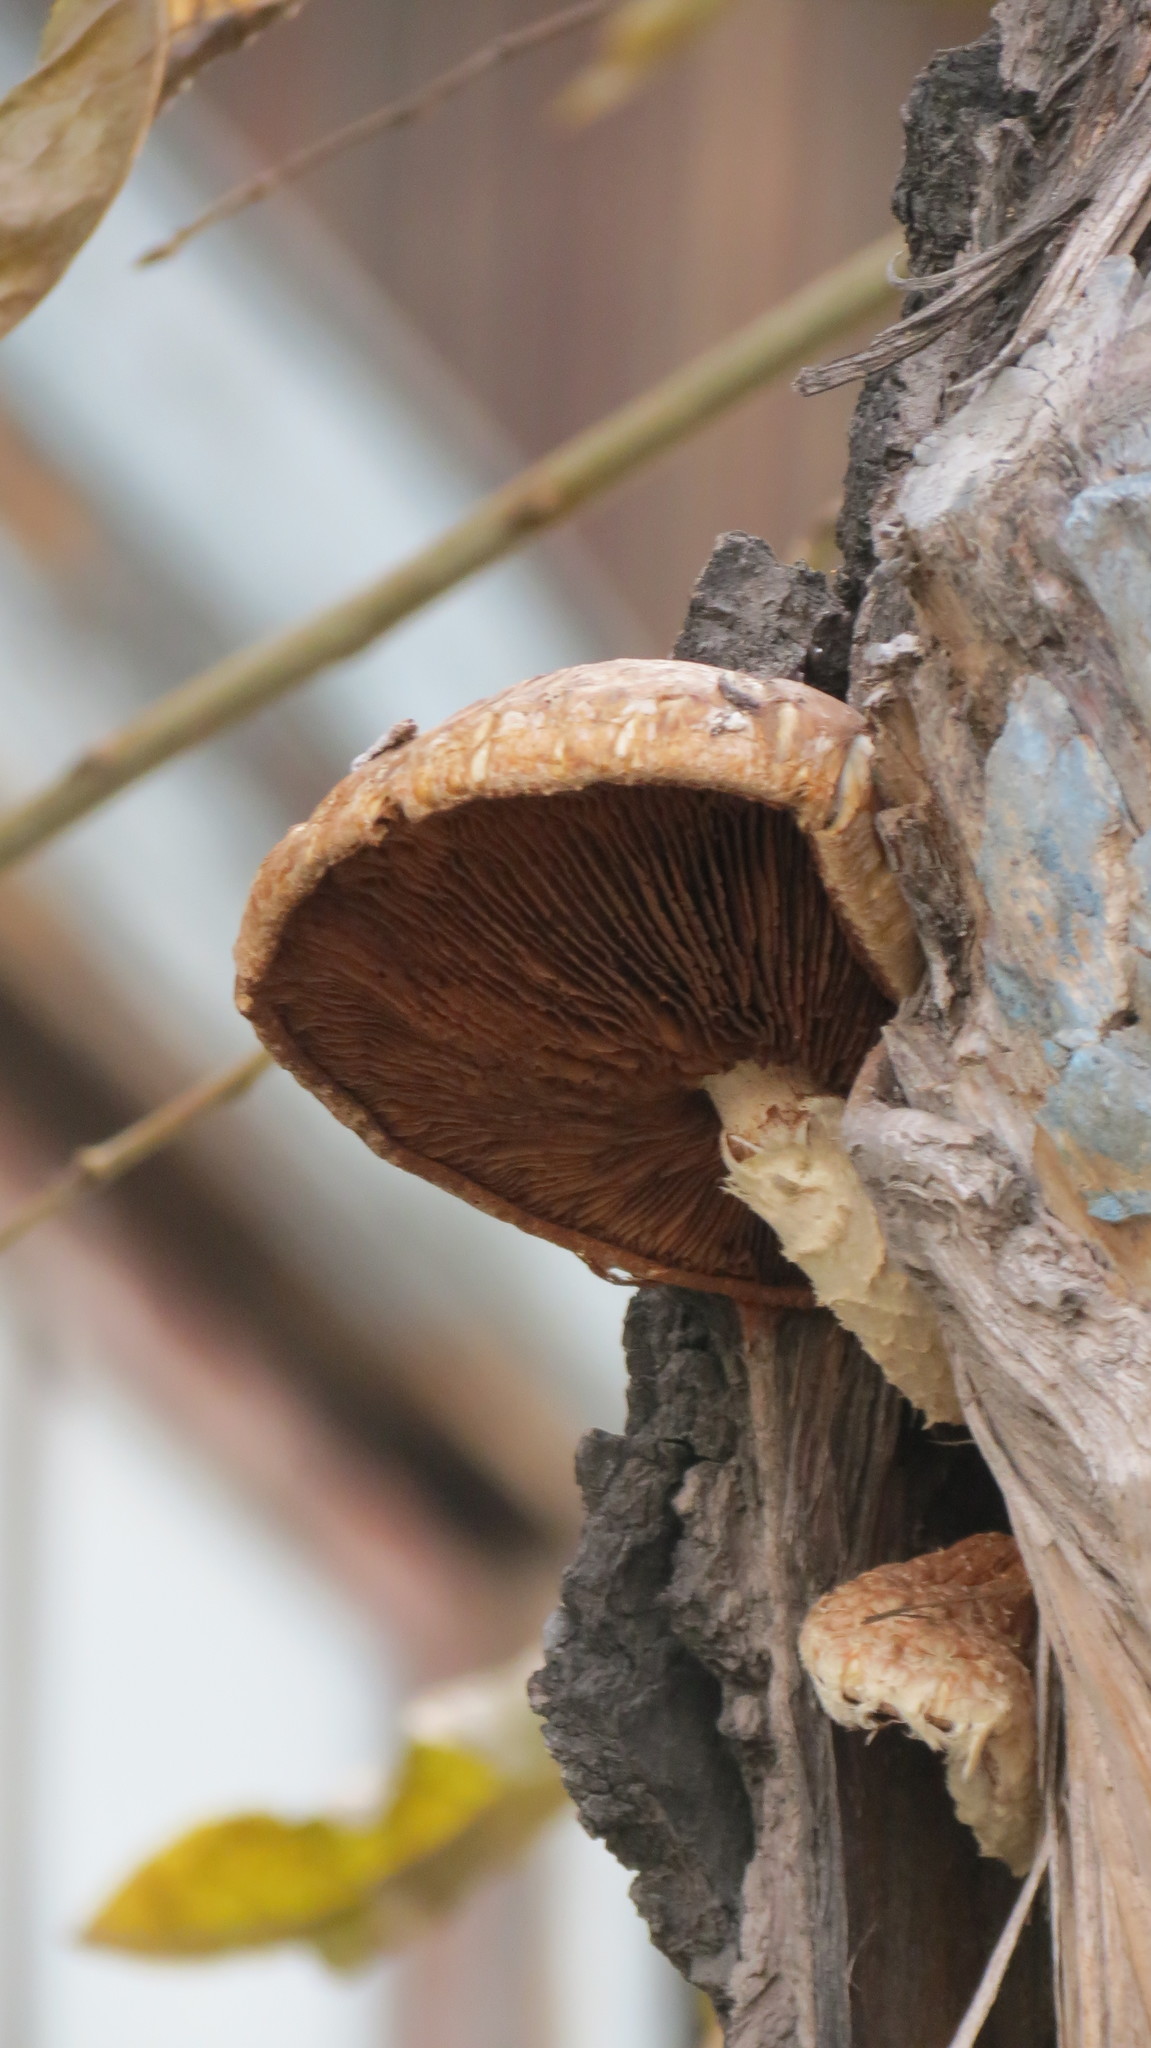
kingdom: Fungi
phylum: Basidiomycota
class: Agaricomycetes
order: Agaricales
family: Strophariaceae
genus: Pholiota
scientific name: Pholiota populnea
